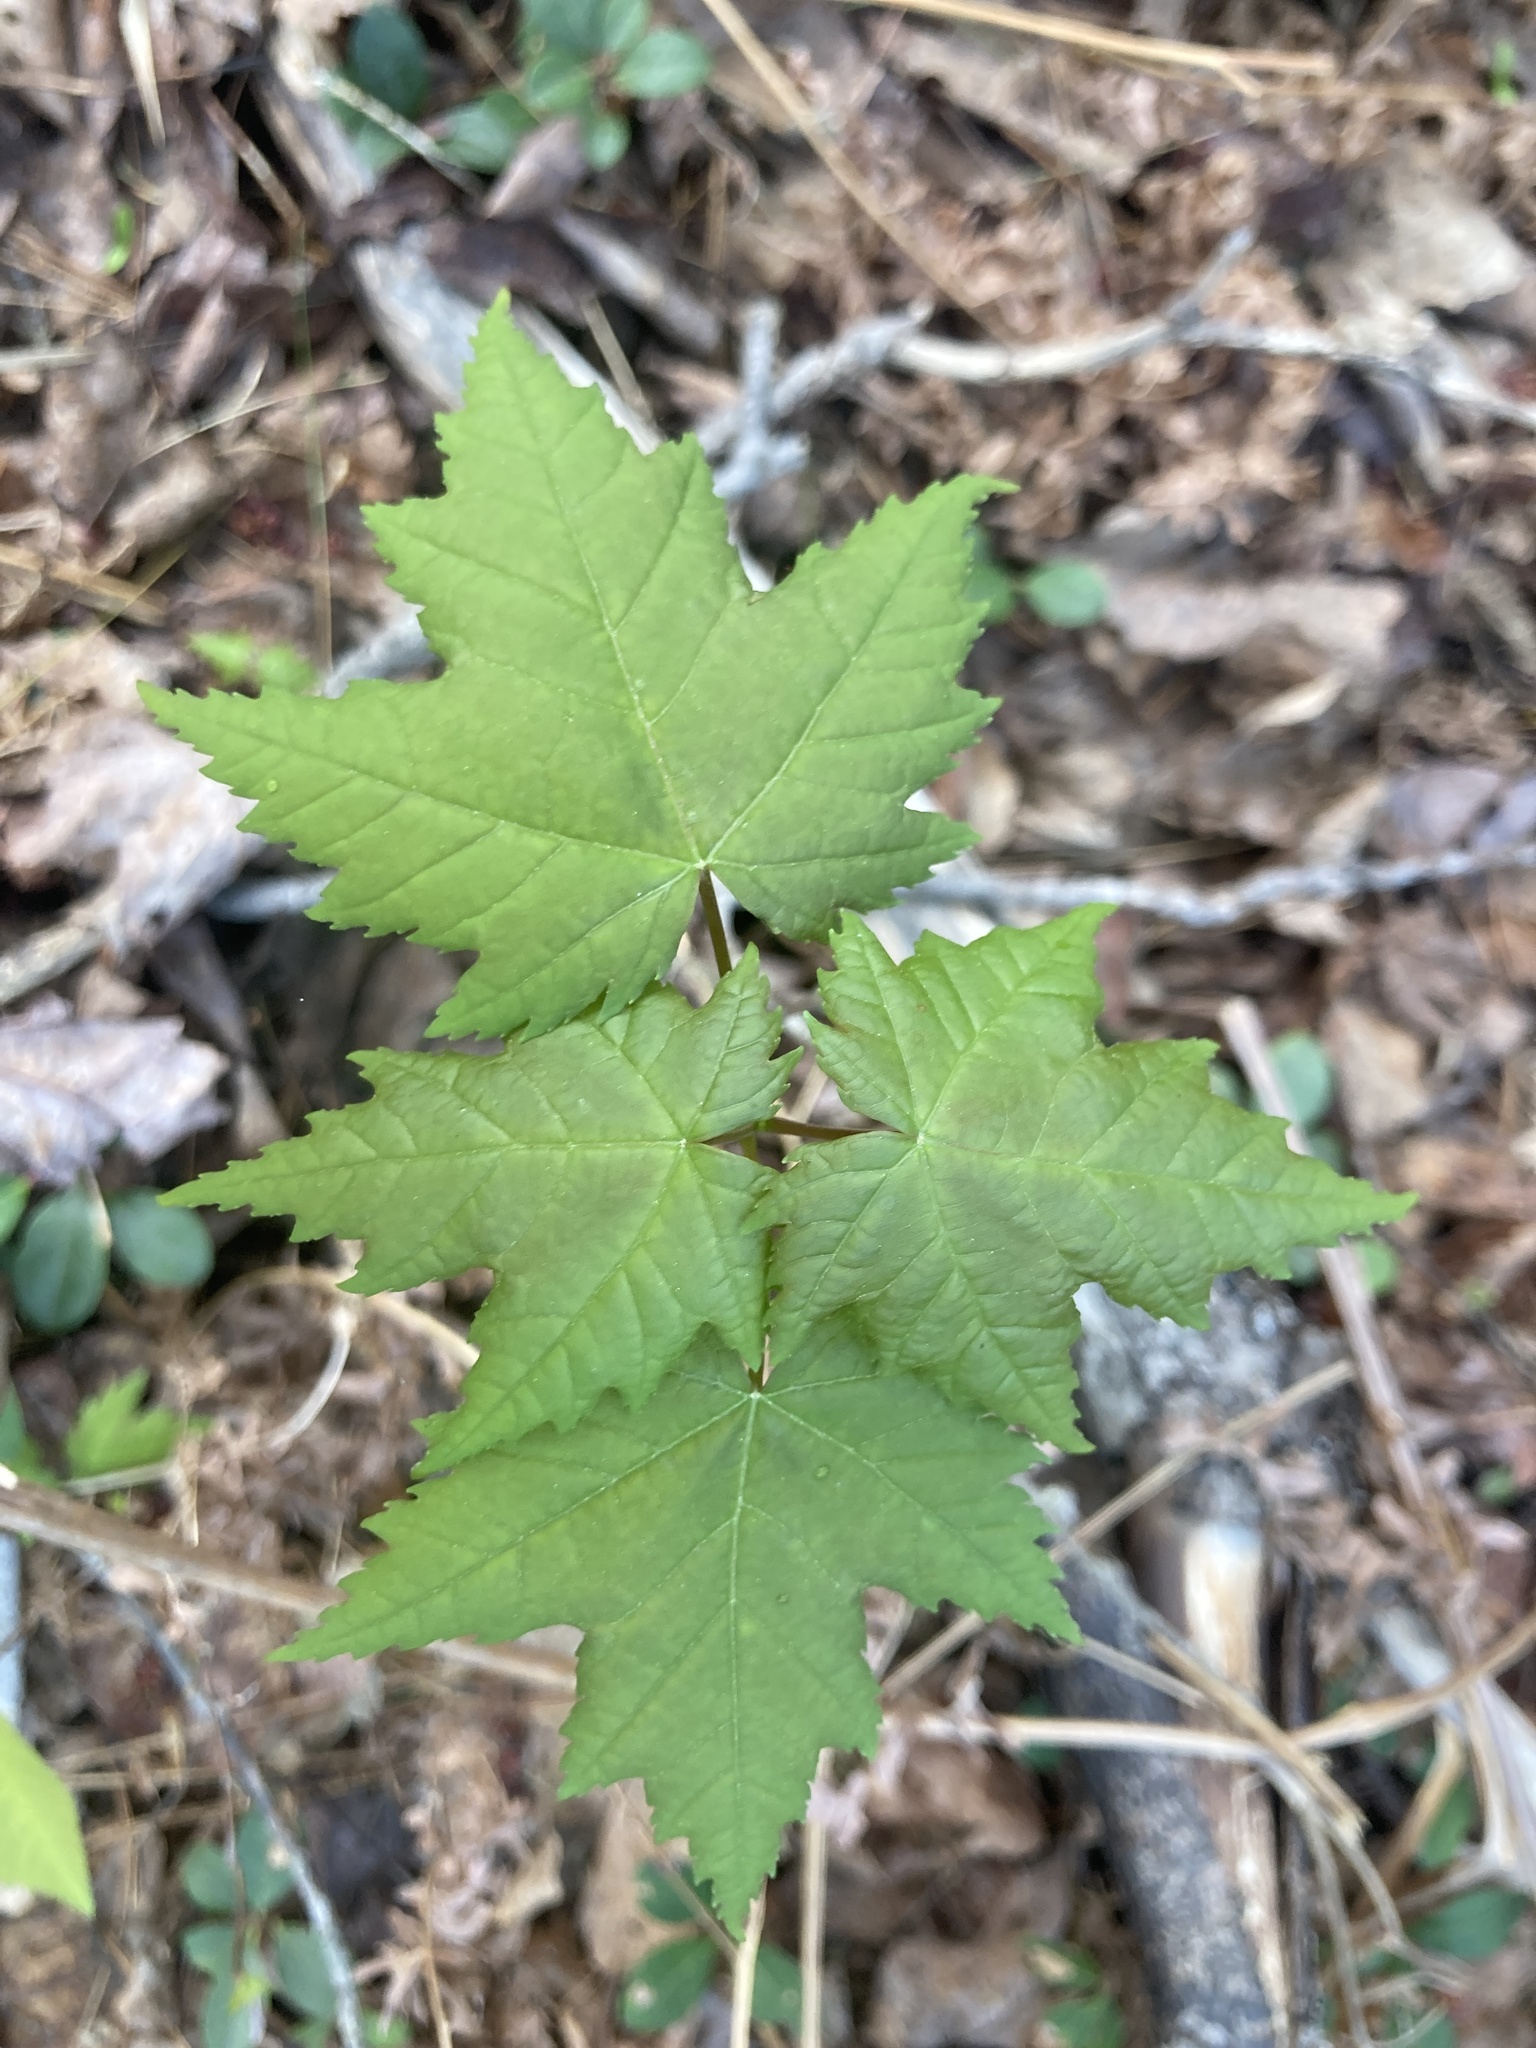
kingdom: Plantae
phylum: Tracheophyta
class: Magnoliopsida
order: Sapindales
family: Sapindaceae
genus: Acer
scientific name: Acer rubrum
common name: Red maple
